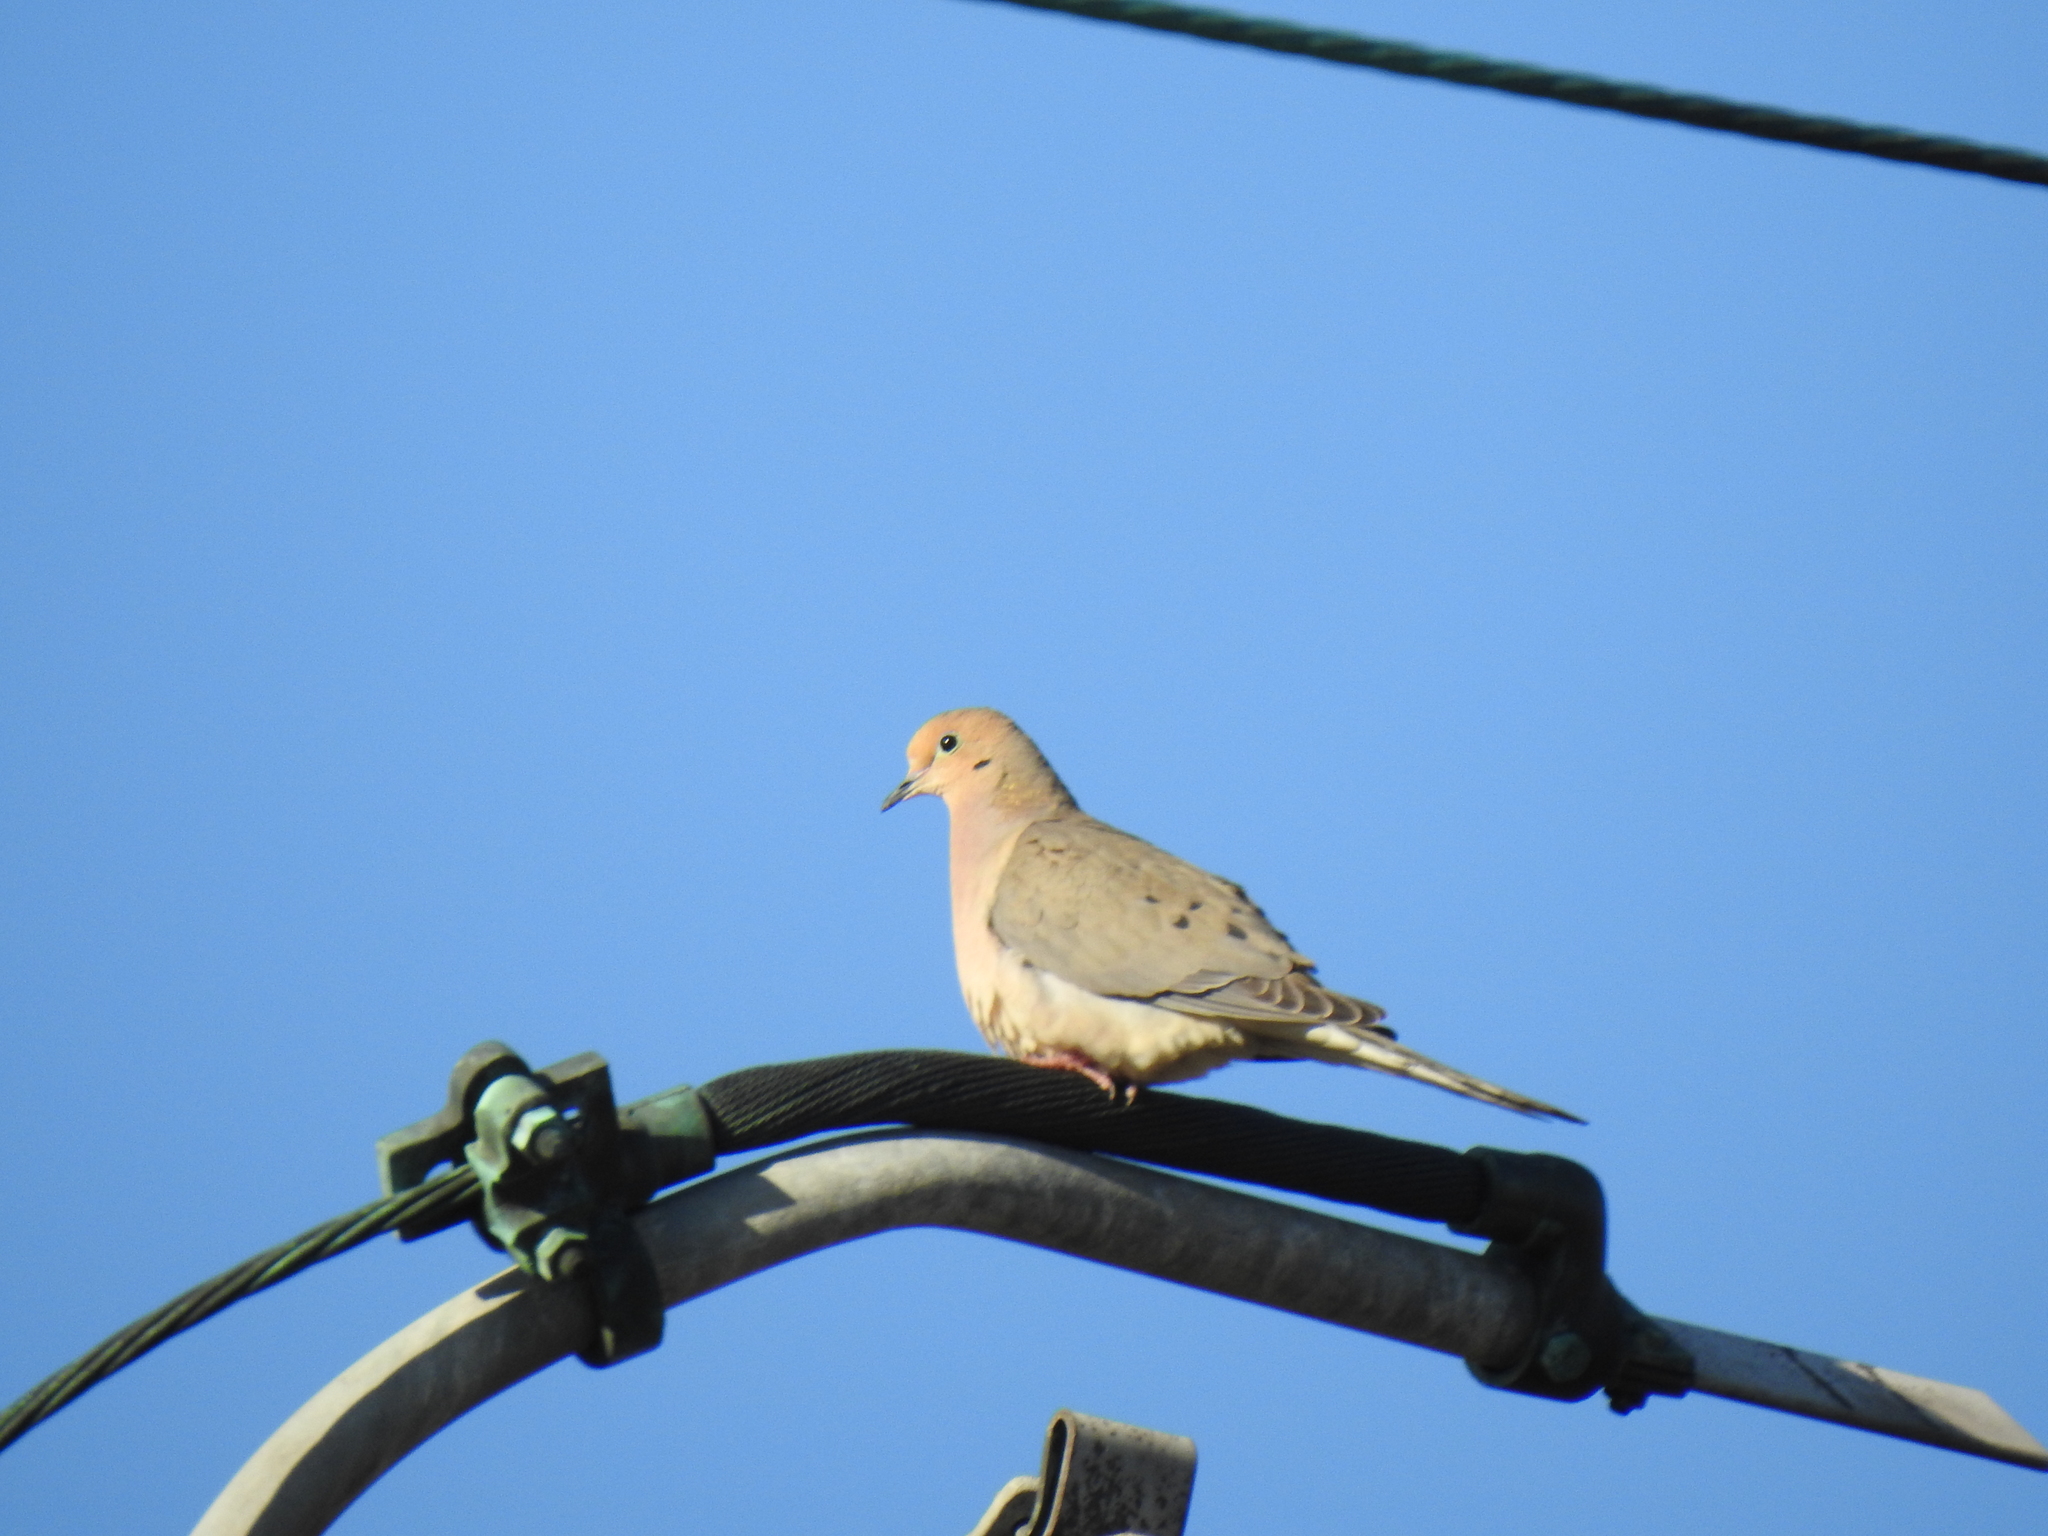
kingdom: Animalia
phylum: Chordata
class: Aves
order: Columbiformes
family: Columbidae
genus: Zenaida
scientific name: Zenaida macroura
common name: Mourning dove
